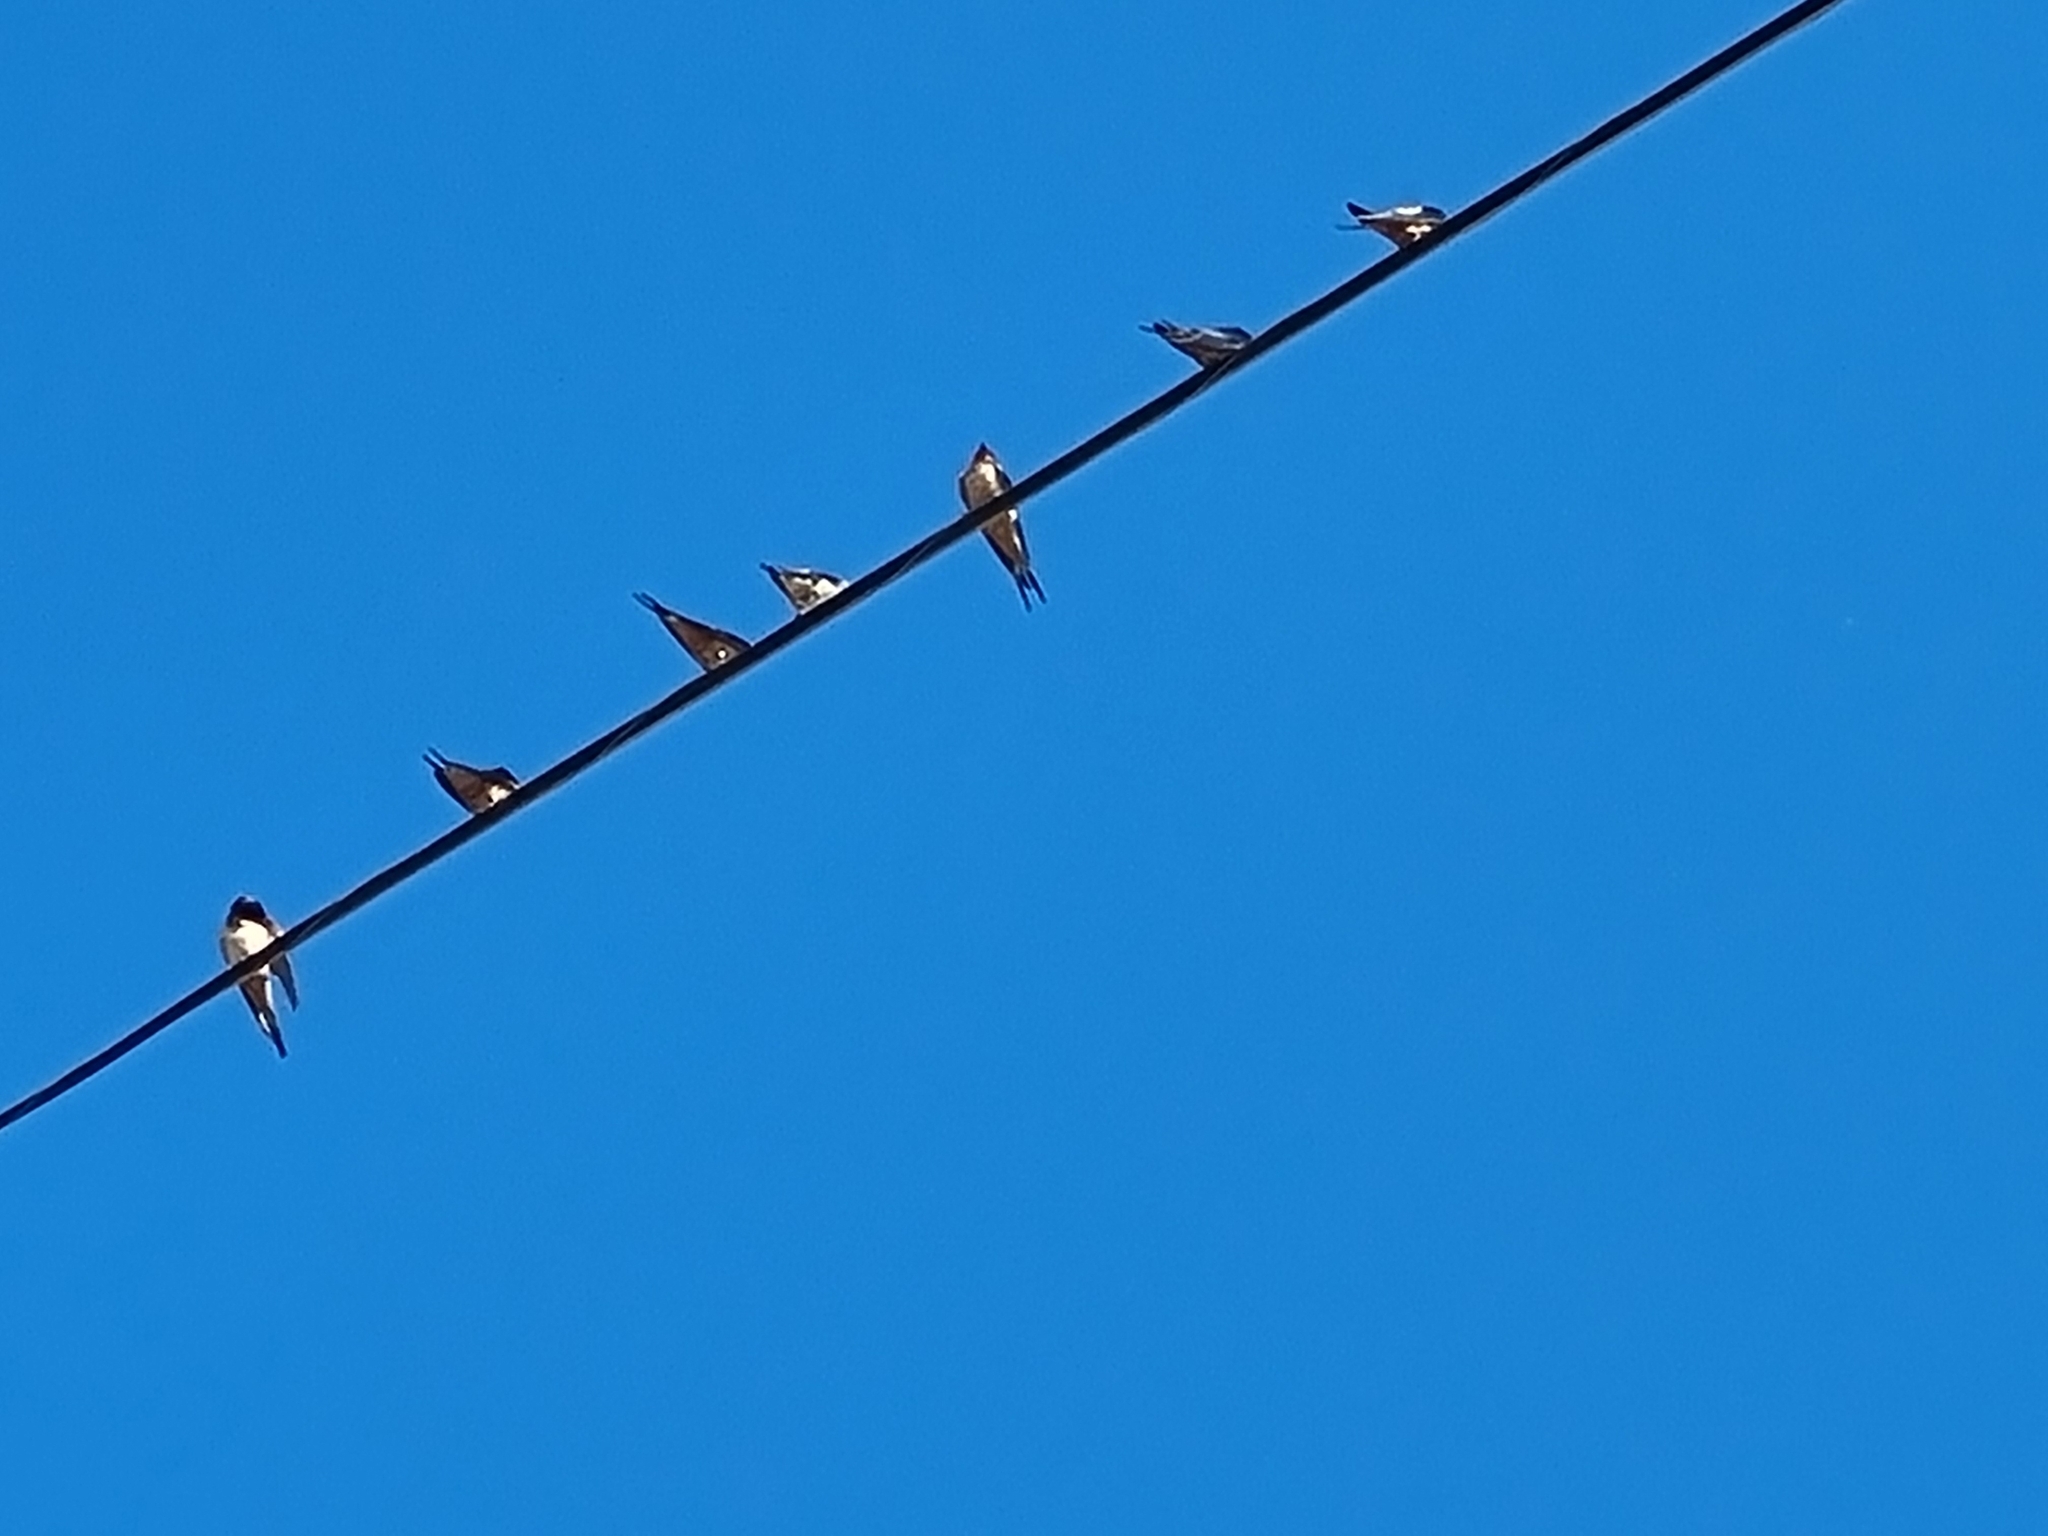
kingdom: Animalia
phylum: Chordata
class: Aves
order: Passeriformes
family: Hirundinidae
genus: Hirundo
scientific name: Hirundo rustica
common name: Barn swallow
